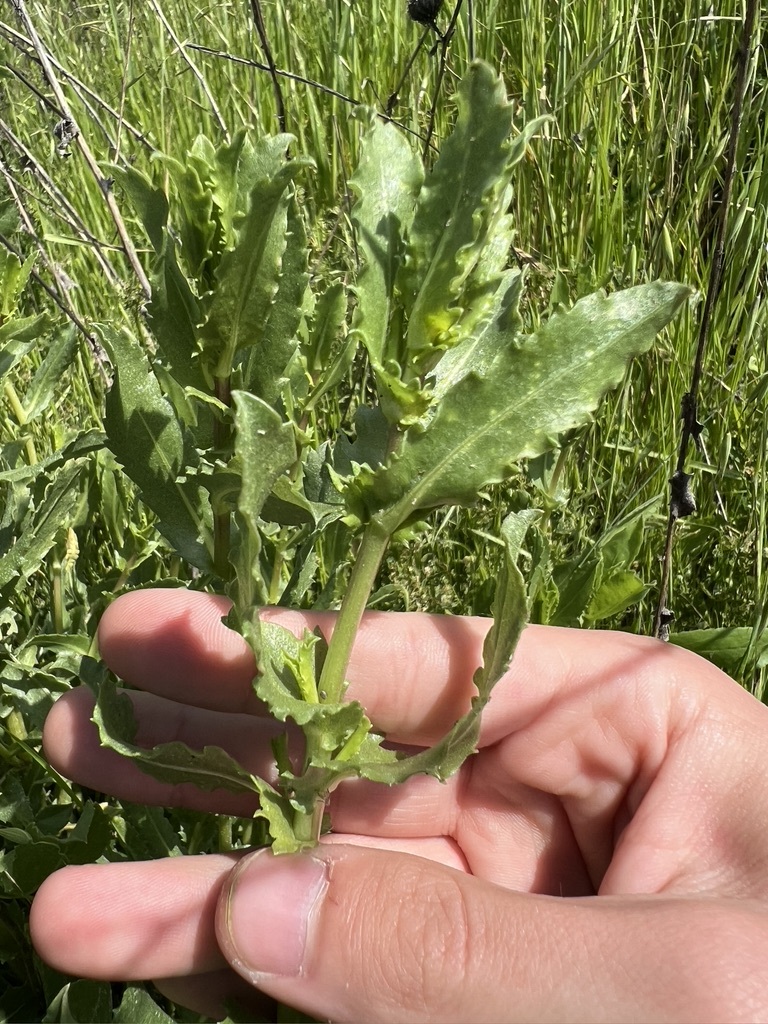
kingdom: Plantae
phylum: Tracheophyta
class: Magnoliopsida
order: Asterales
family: Asteraceae
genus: Grindelia
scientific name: Grindelia hirsutula
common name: Hairy gumweed
